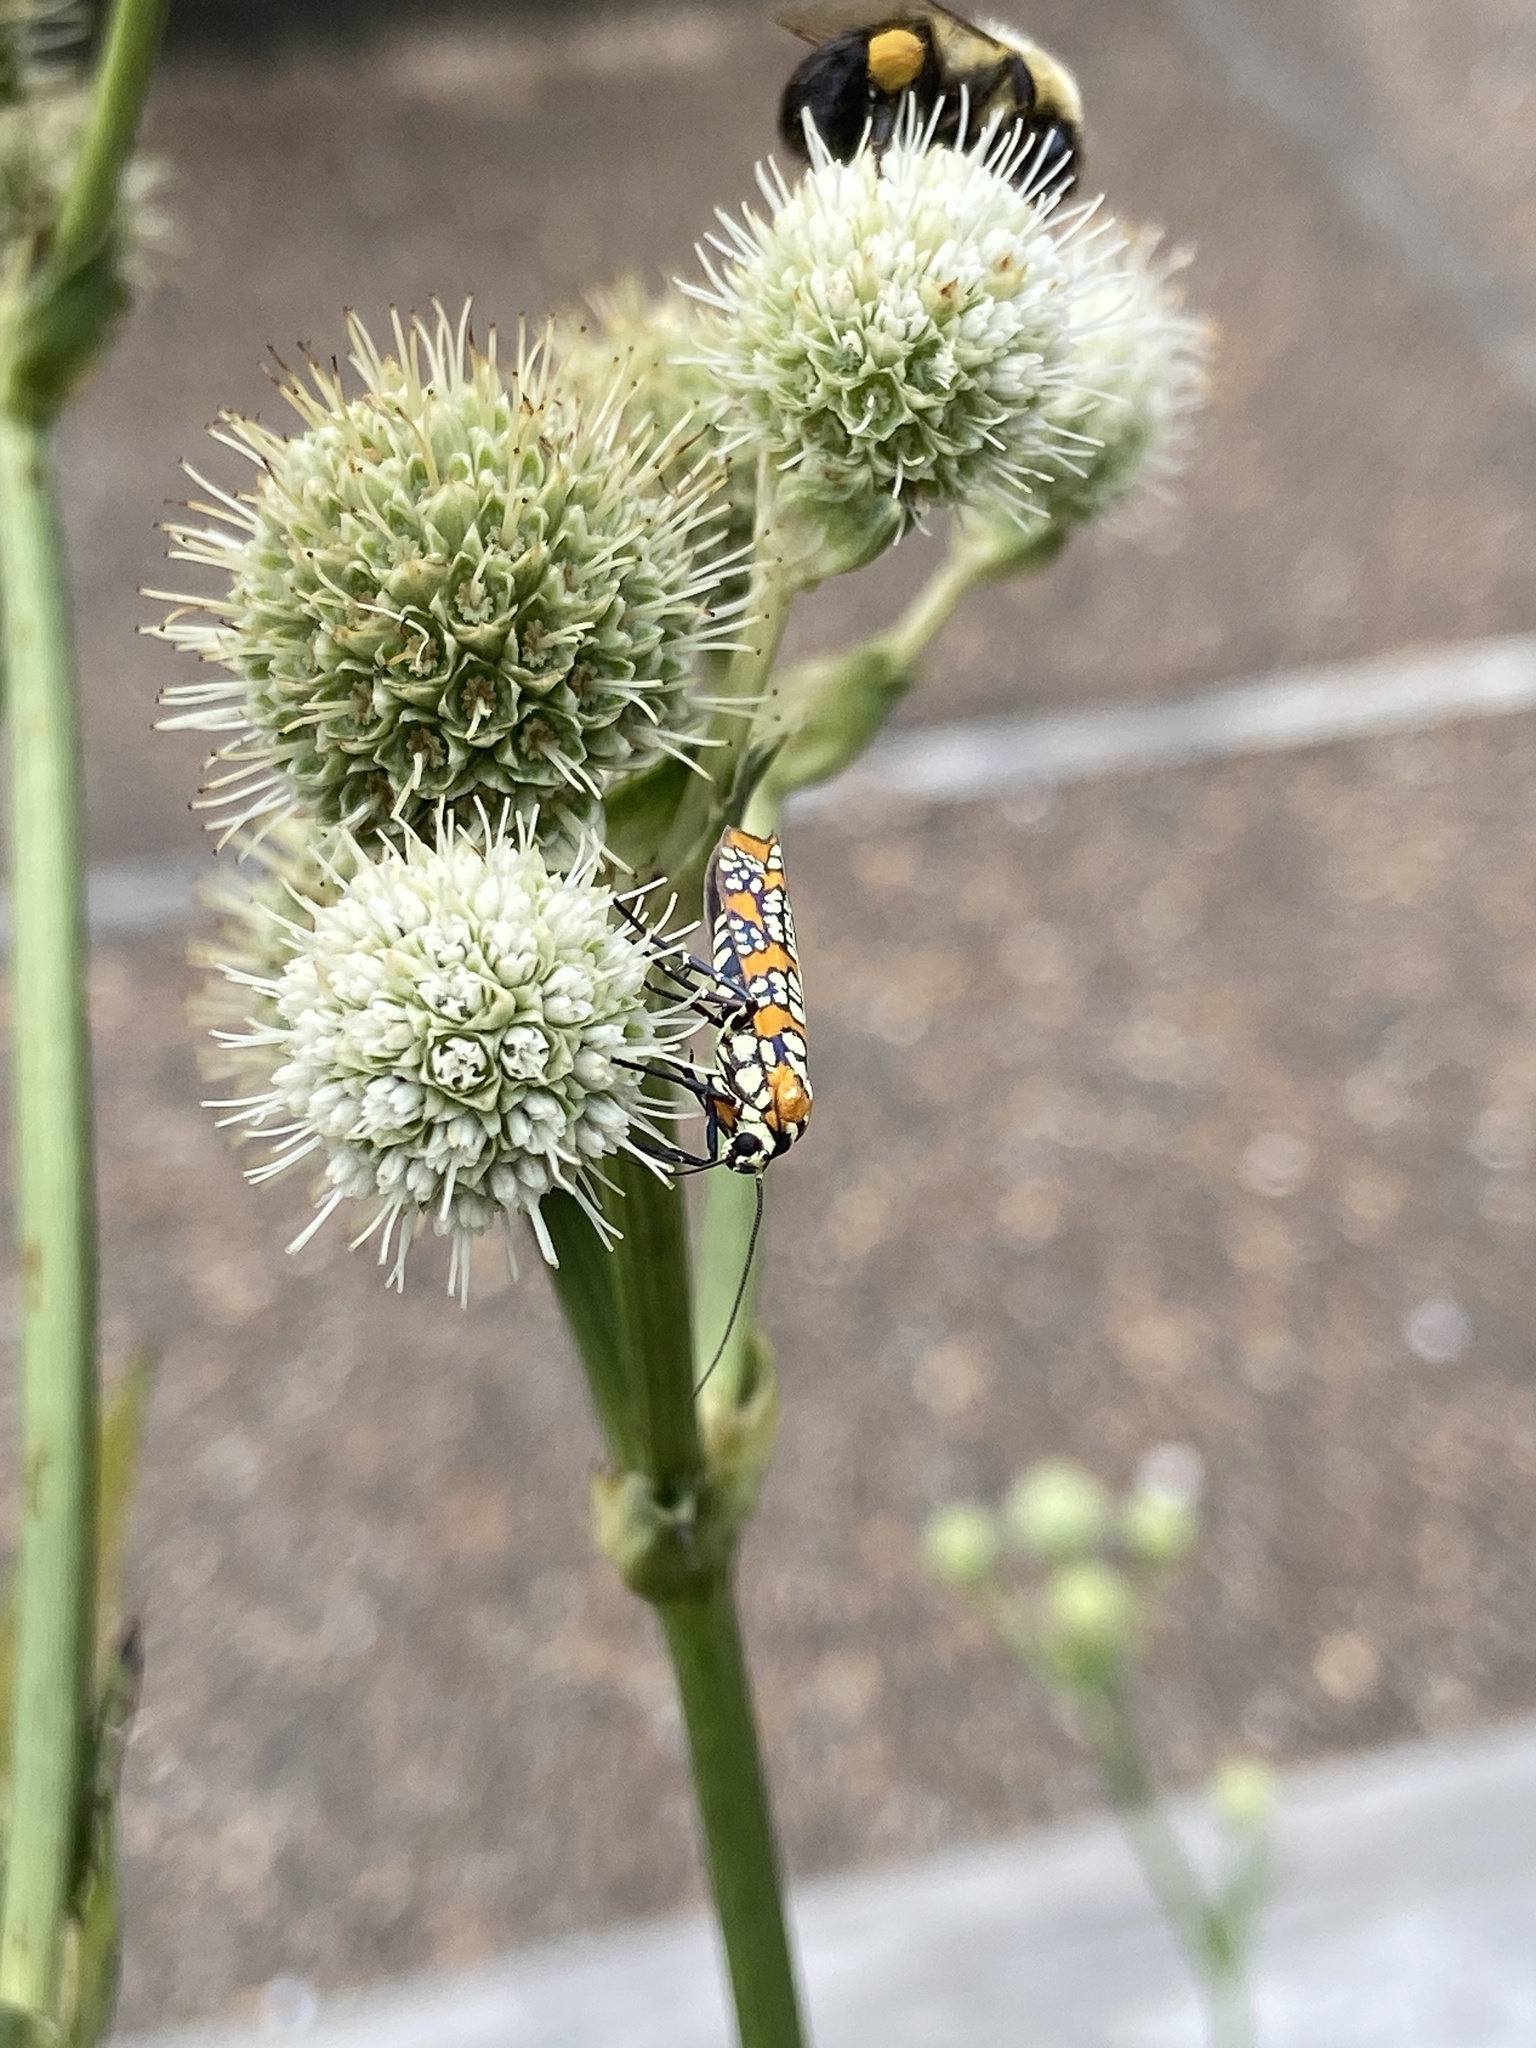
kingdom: Animalia
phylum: Arthropoda
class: Insecta
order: Lepidoptera
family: Attevidae
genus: Atteva
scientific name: Atteva punctella
